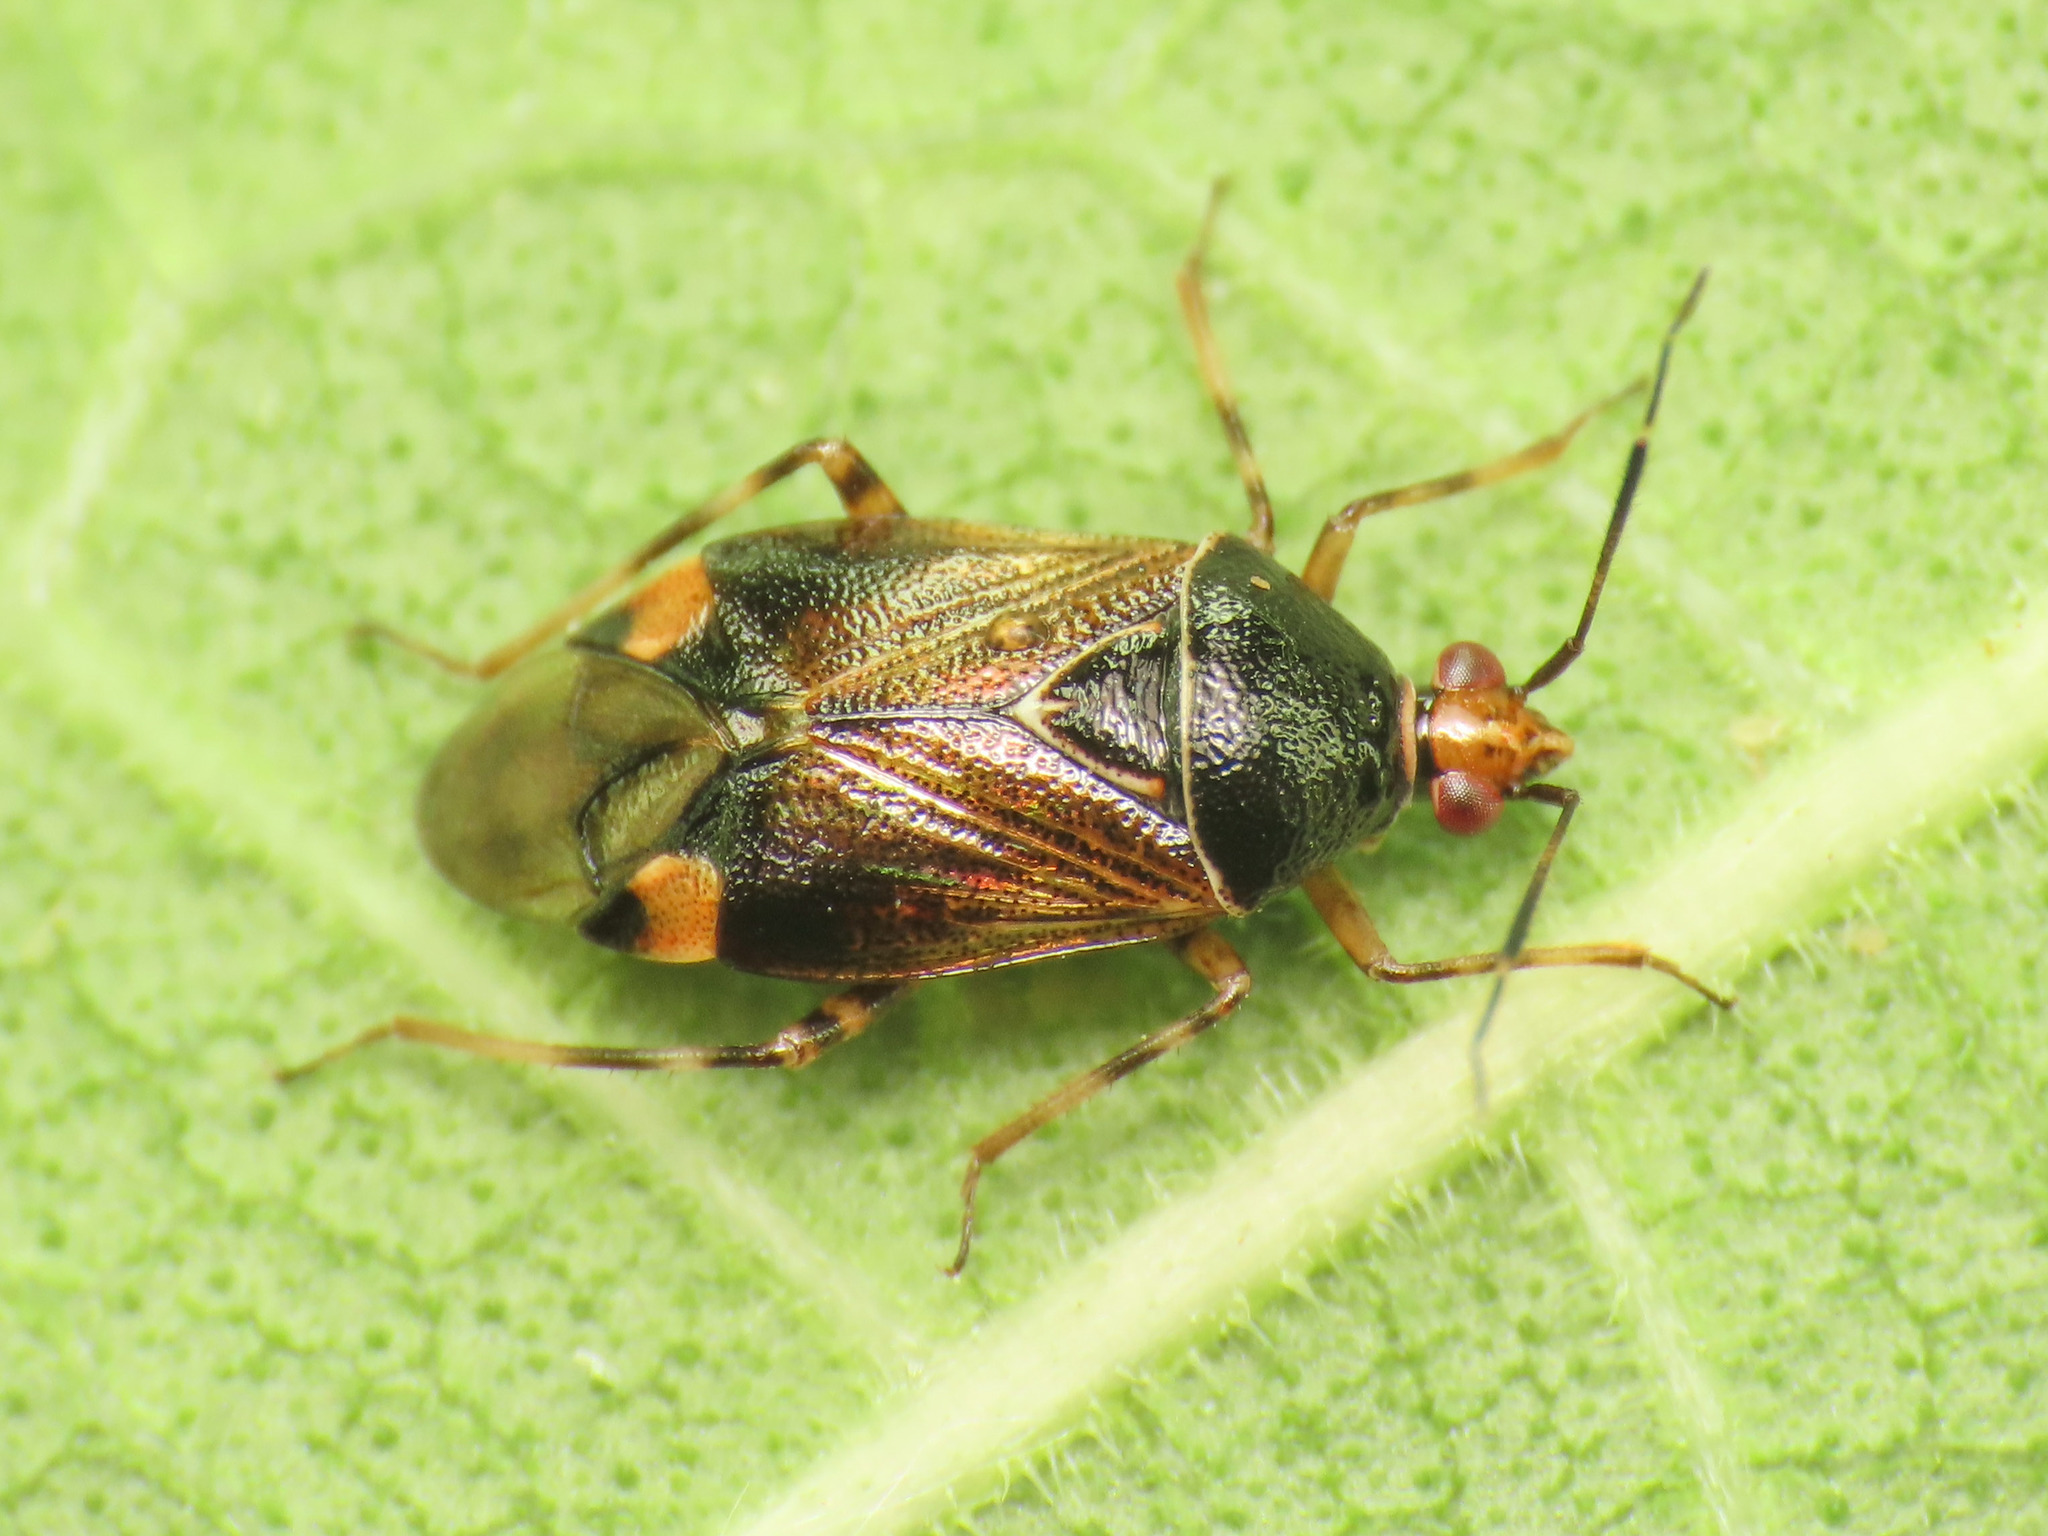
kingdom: Animalia
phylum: Arthropoda
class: Insecta
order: Hemiptera
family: Miridae
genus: Deraeocoris
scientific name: Deraeocoris flavilinea
